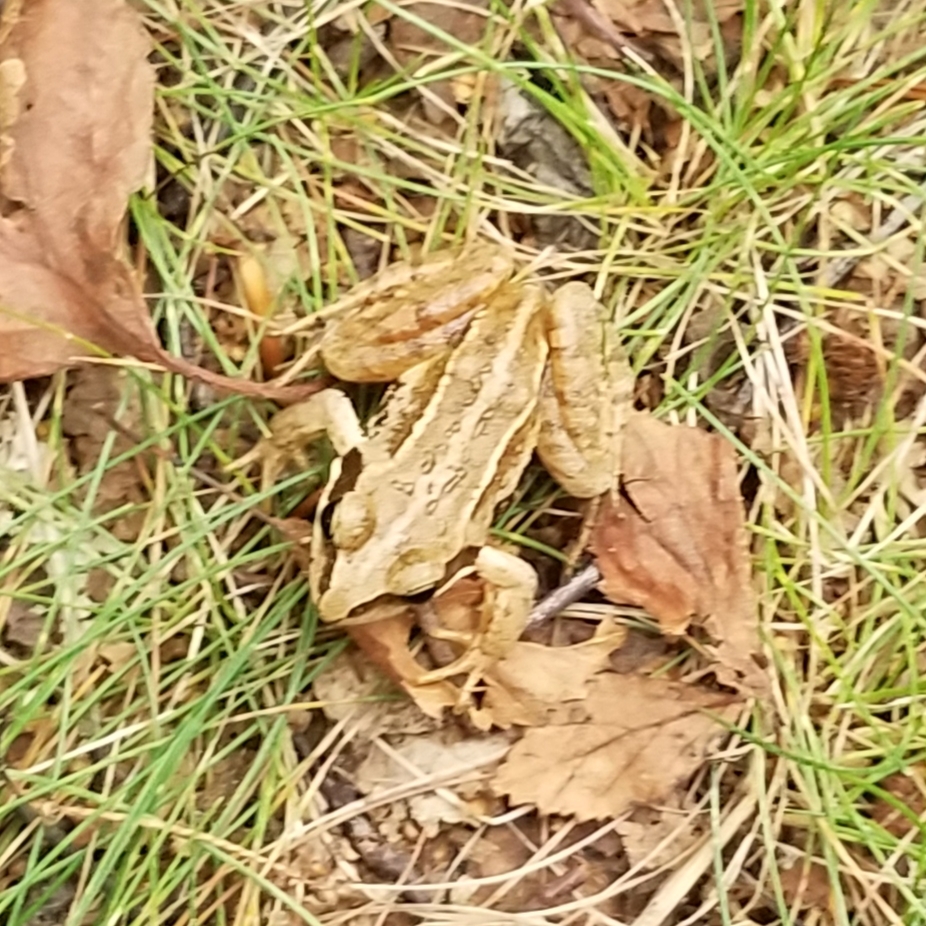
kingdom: Animalia
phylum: Chordata
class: Amphibia
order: Anura
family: Ranidae
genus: Rana
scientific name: Rana arvalis
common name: Moor frog
